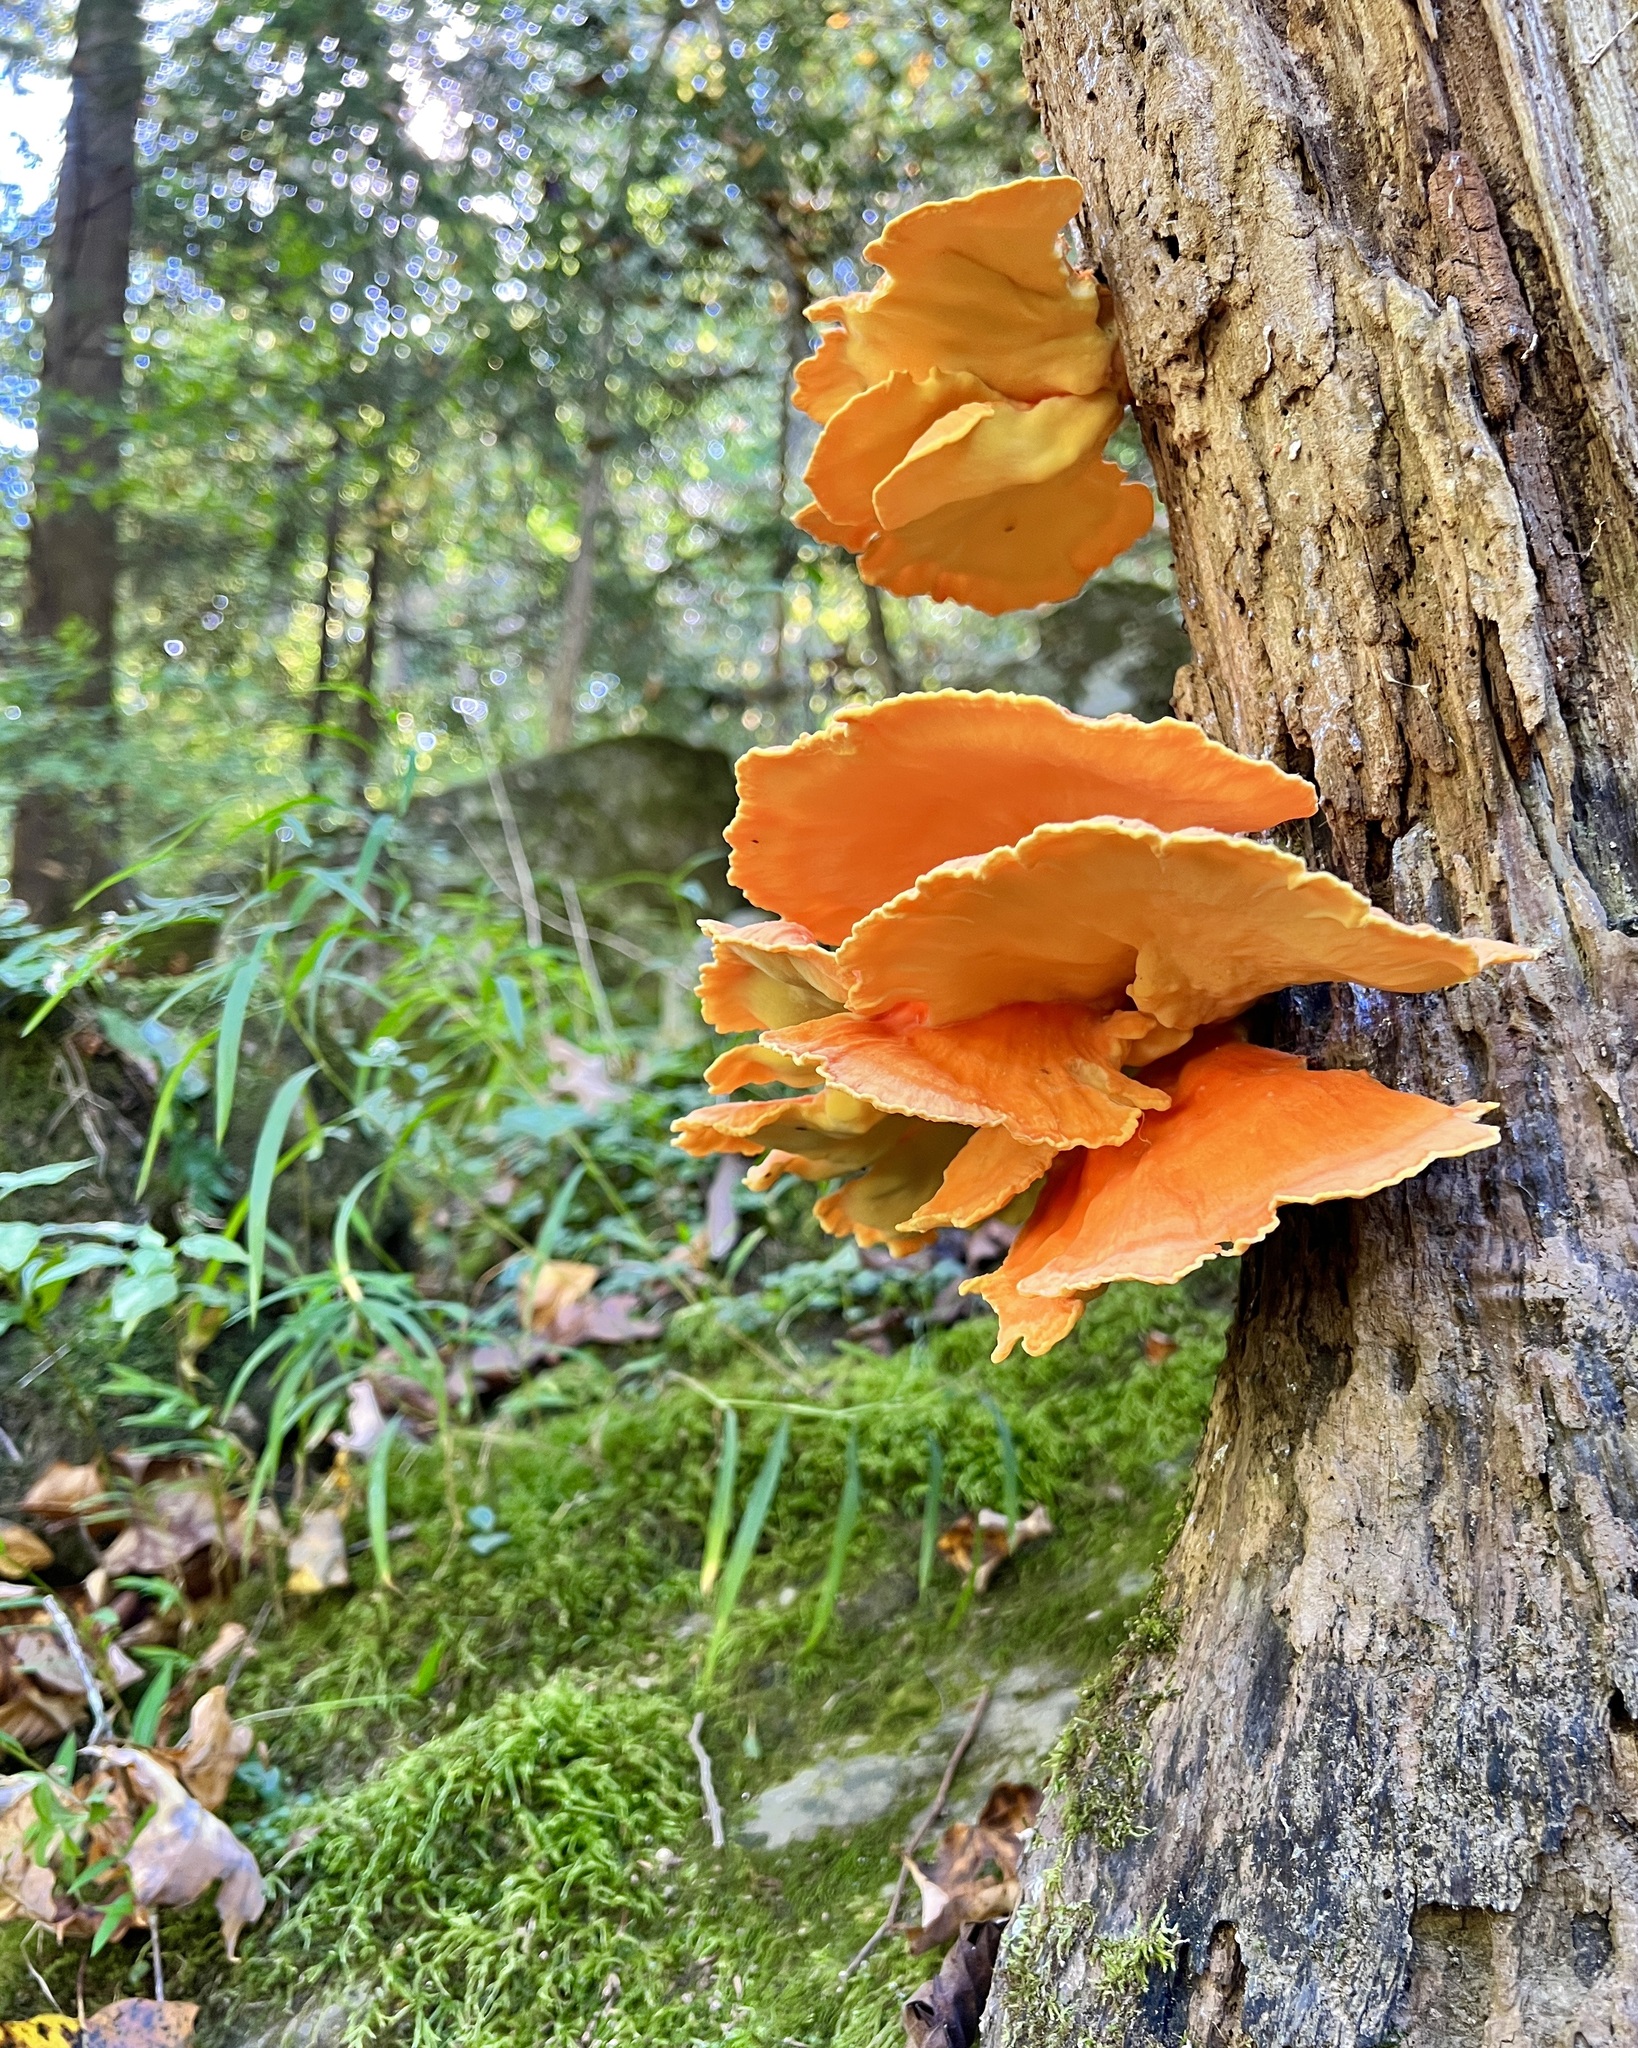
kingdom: Fungi
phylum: Basidiomycota
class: Agaricomycetes
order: Polyporales
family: Laetiporaceae
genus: Laetiporus
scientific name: Laetiporus sulphureus
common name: Chicken of the woods
